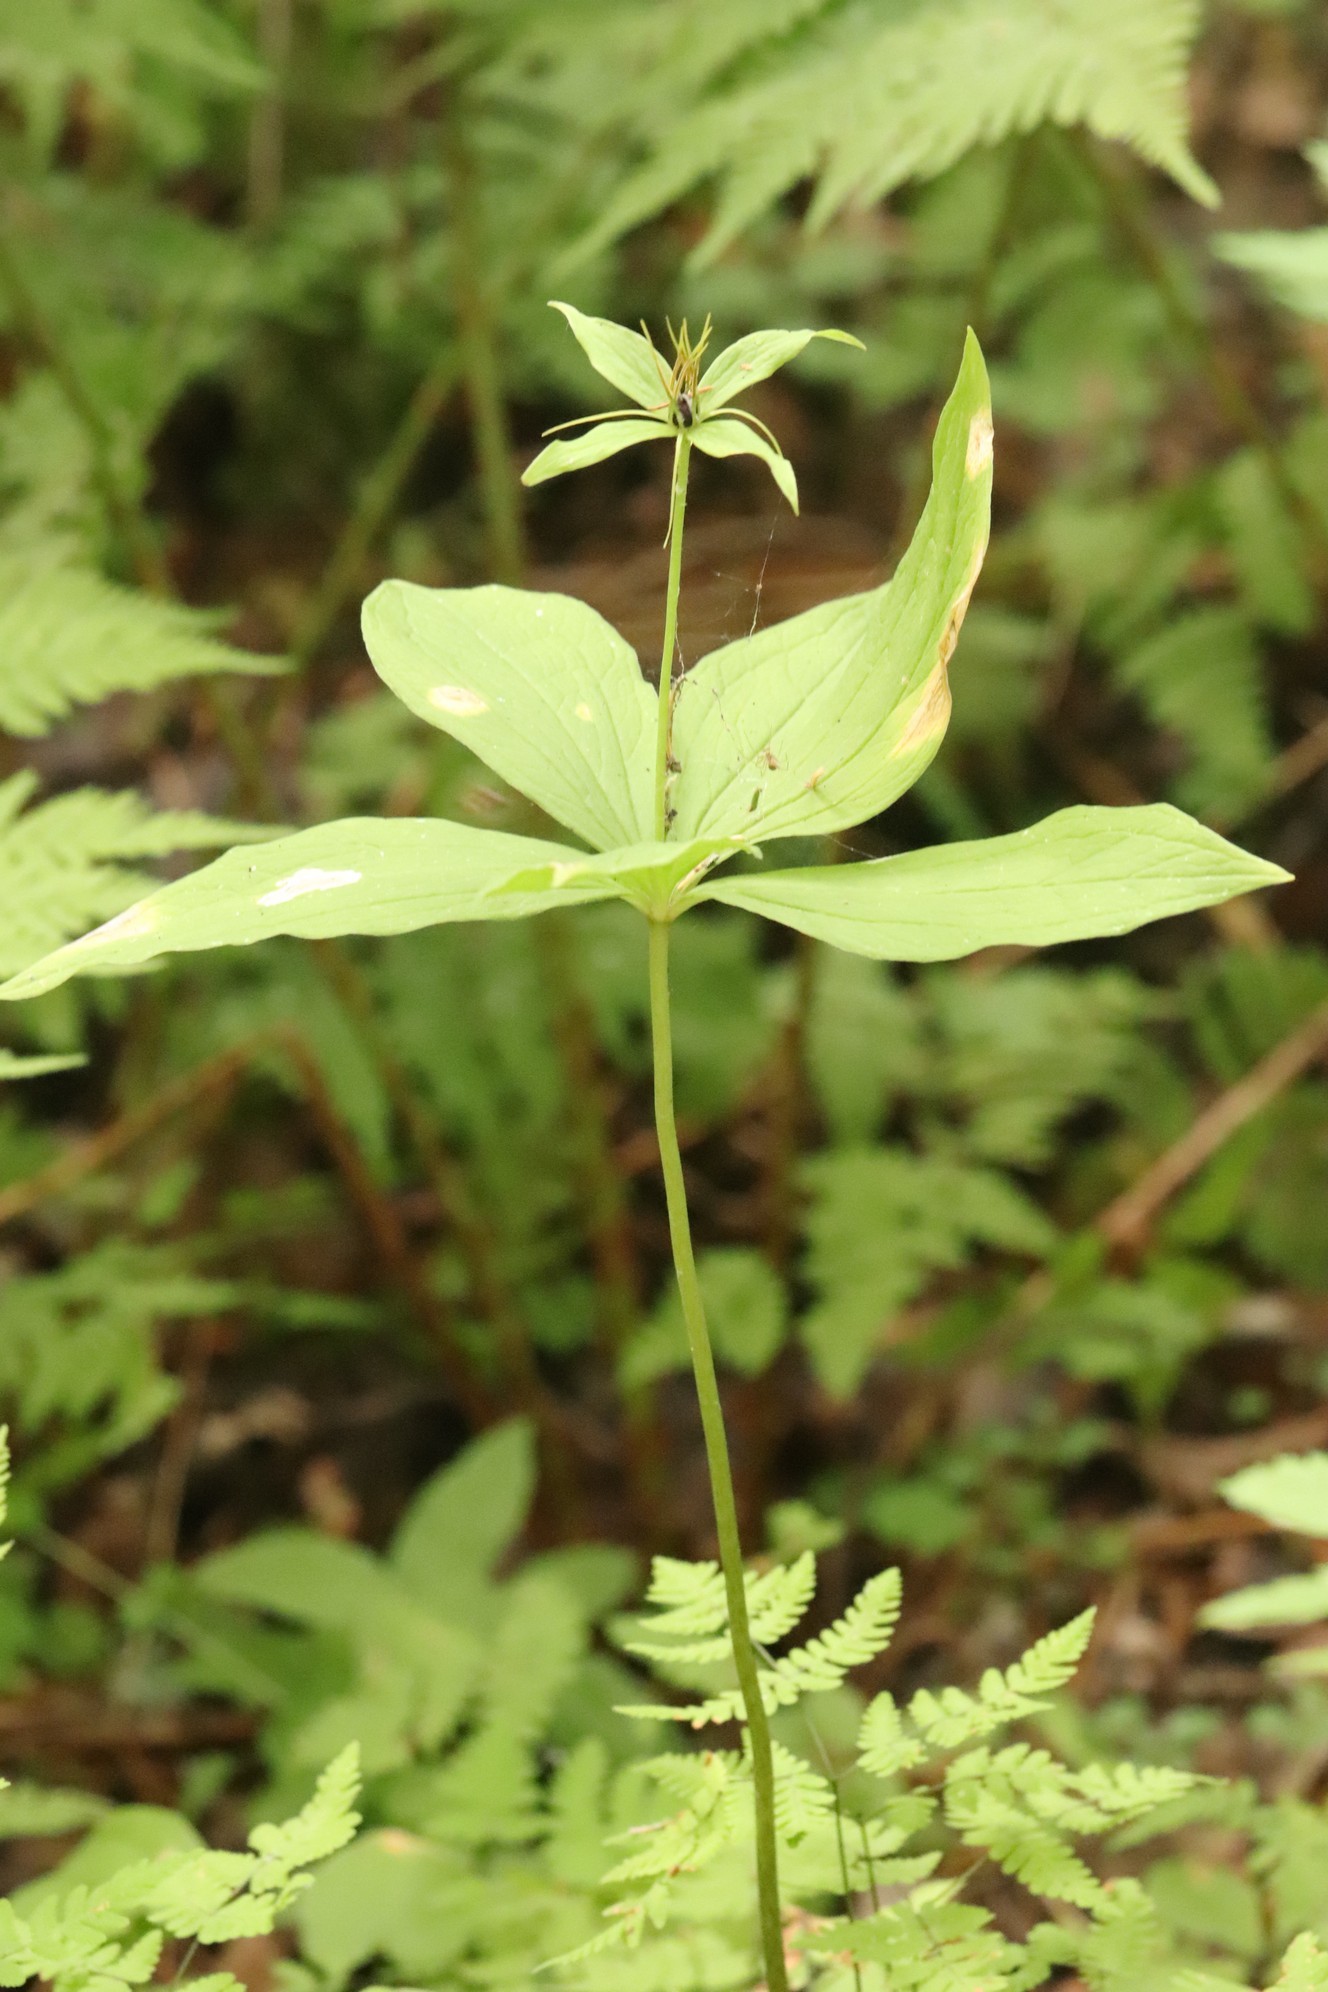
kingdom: Plantae
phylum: Tracheophyta
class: Liliopsida
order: Liliales
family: Melanthiaceae
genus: Paris
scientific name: Paris quadrifolia
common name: Herb-paris
